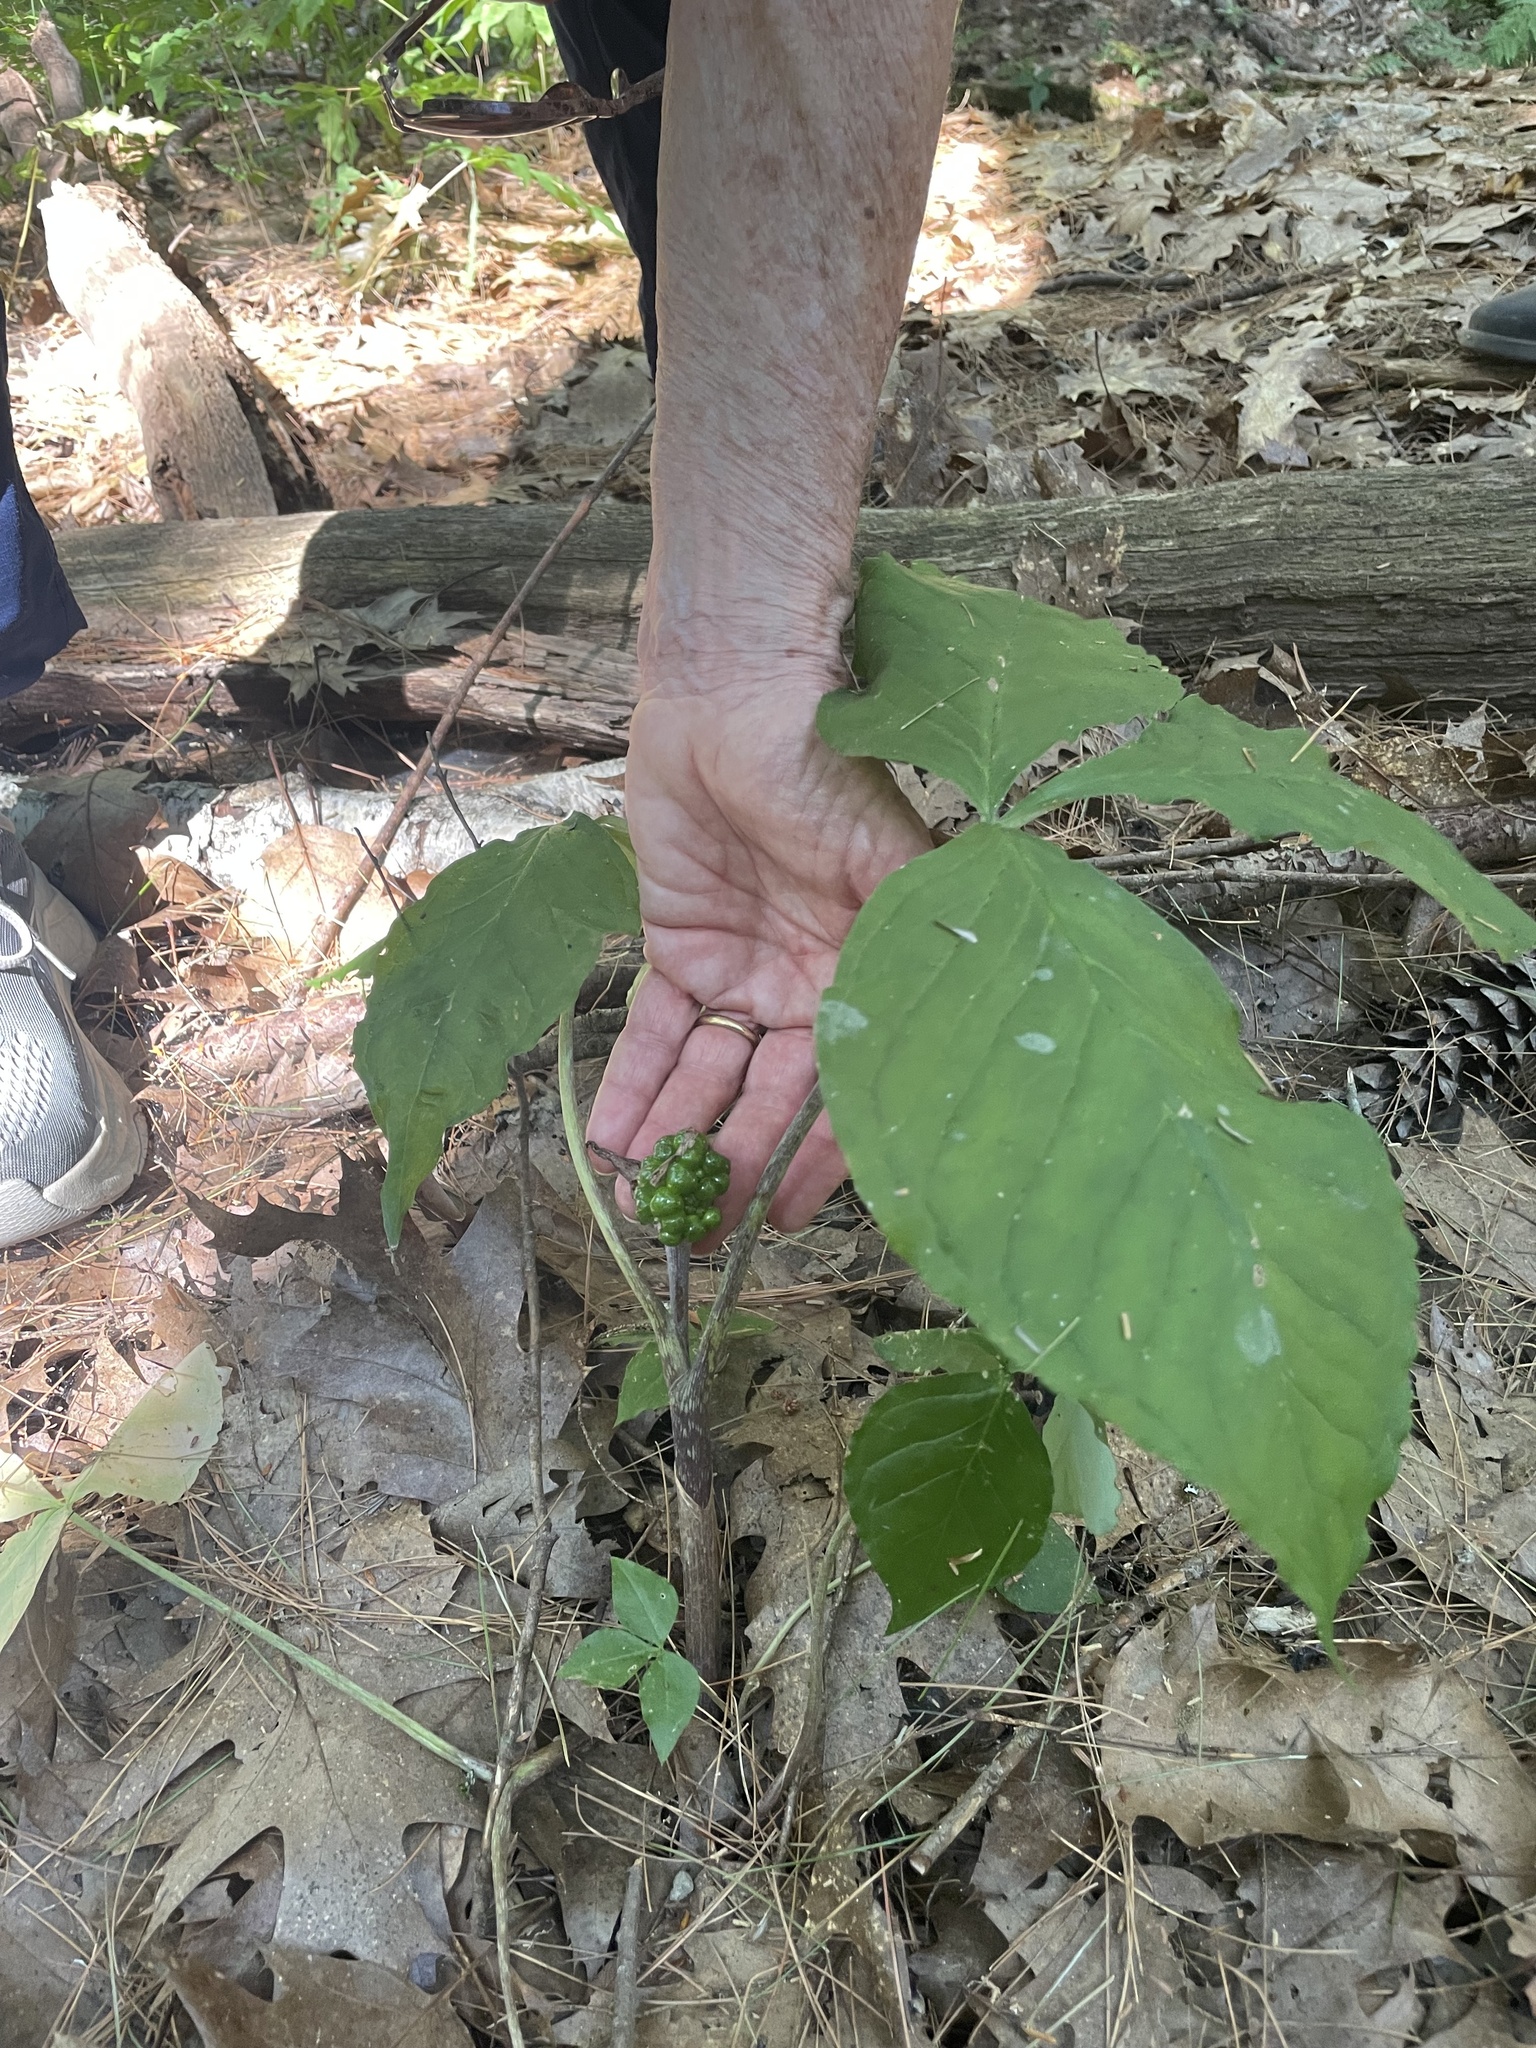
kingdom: Plantae
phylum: Tracheophyta
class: Liliopsida
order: Alismatales
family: Araceae
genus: Arisaema
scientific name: Arisaema triphyllum
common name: Jack-in-the-pulpit
